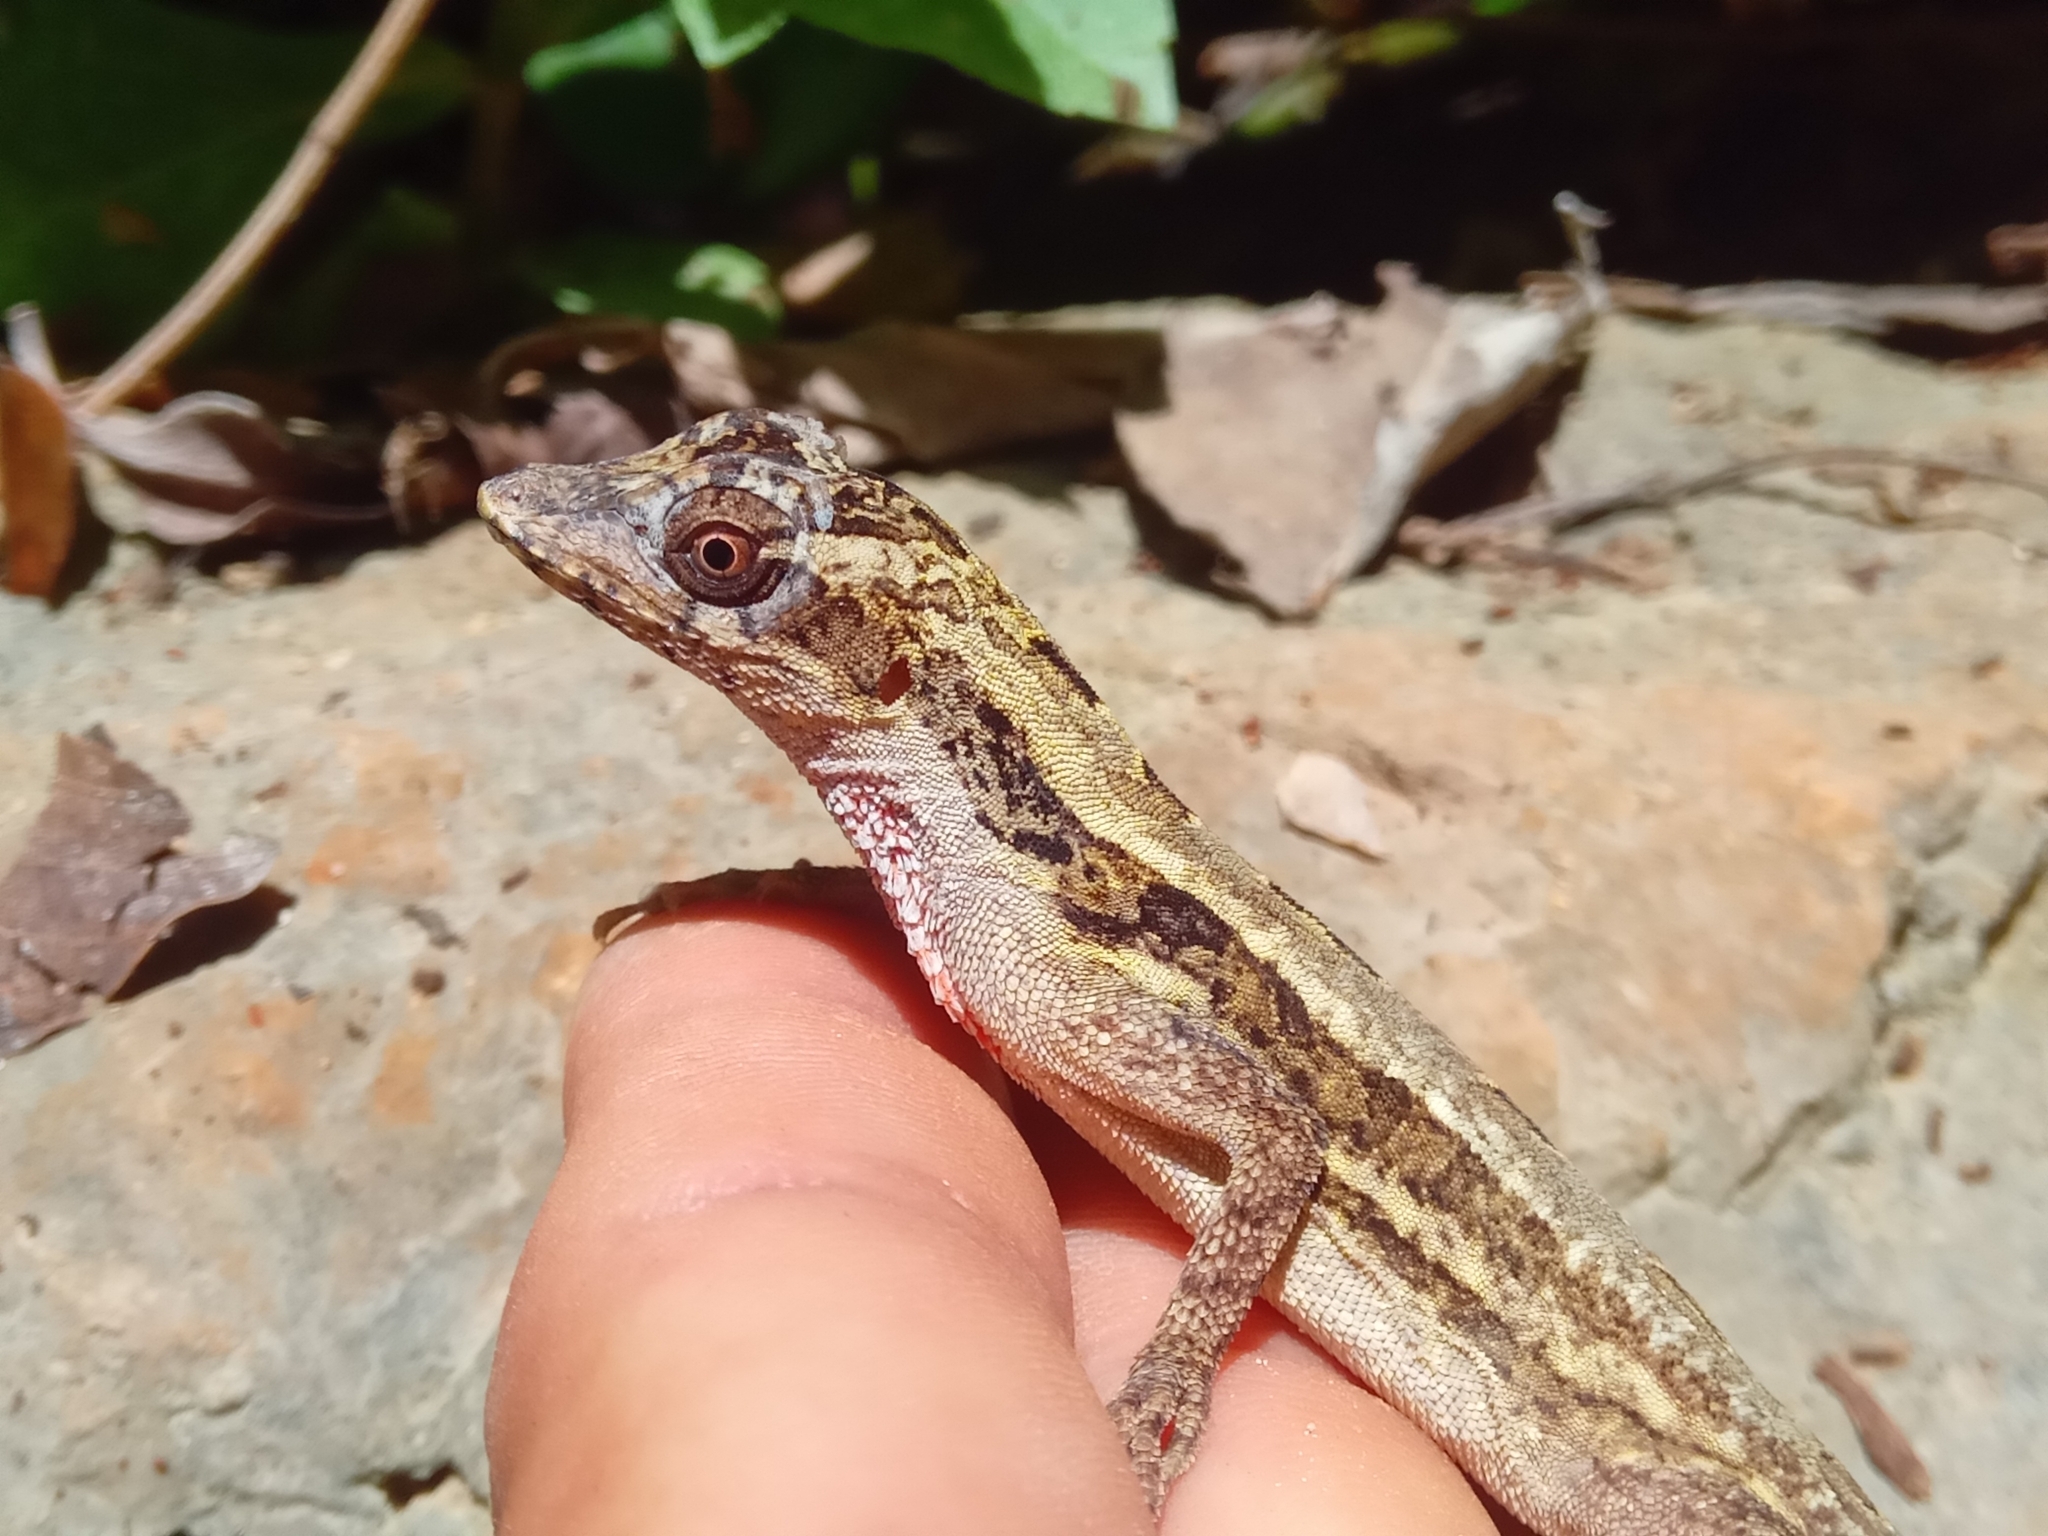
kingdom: Animalia
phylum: Chordata
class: Squamata
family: Dactyloidae
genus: Anolis
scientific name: Anolis lemurinus
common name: Ghost anole
